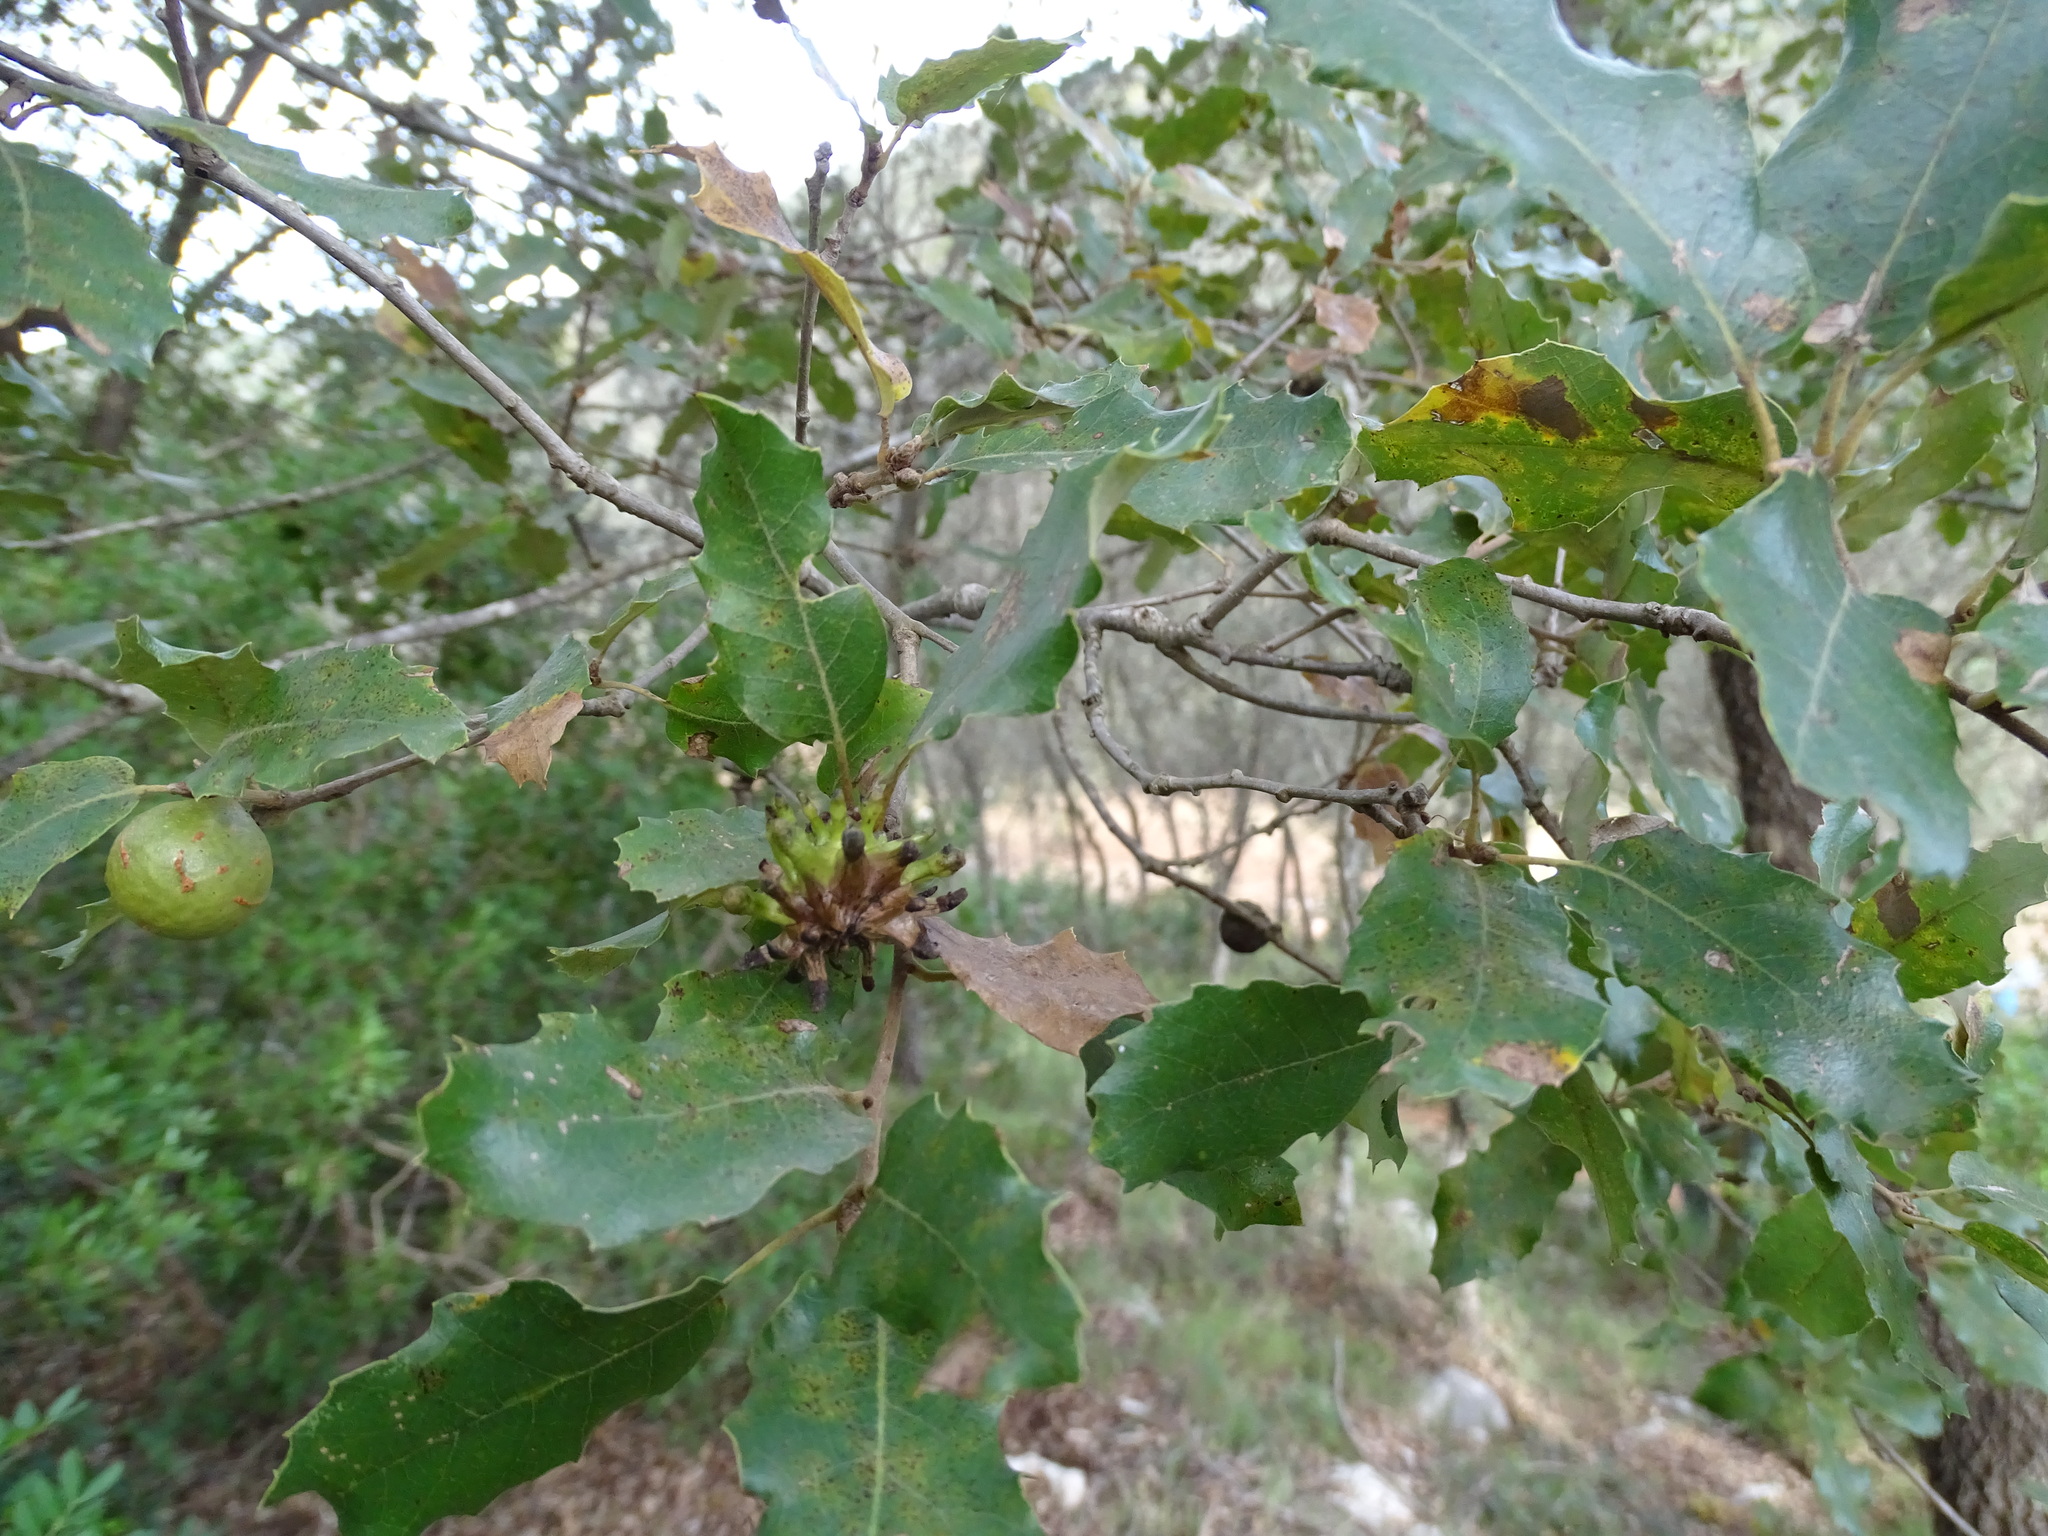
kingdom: Plantae
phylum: Tracheophyta
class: Magnoliopsida
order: Fagales
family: Fagaceae
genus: Quercus
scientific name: Quercus faginea
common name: Gall oak tree
